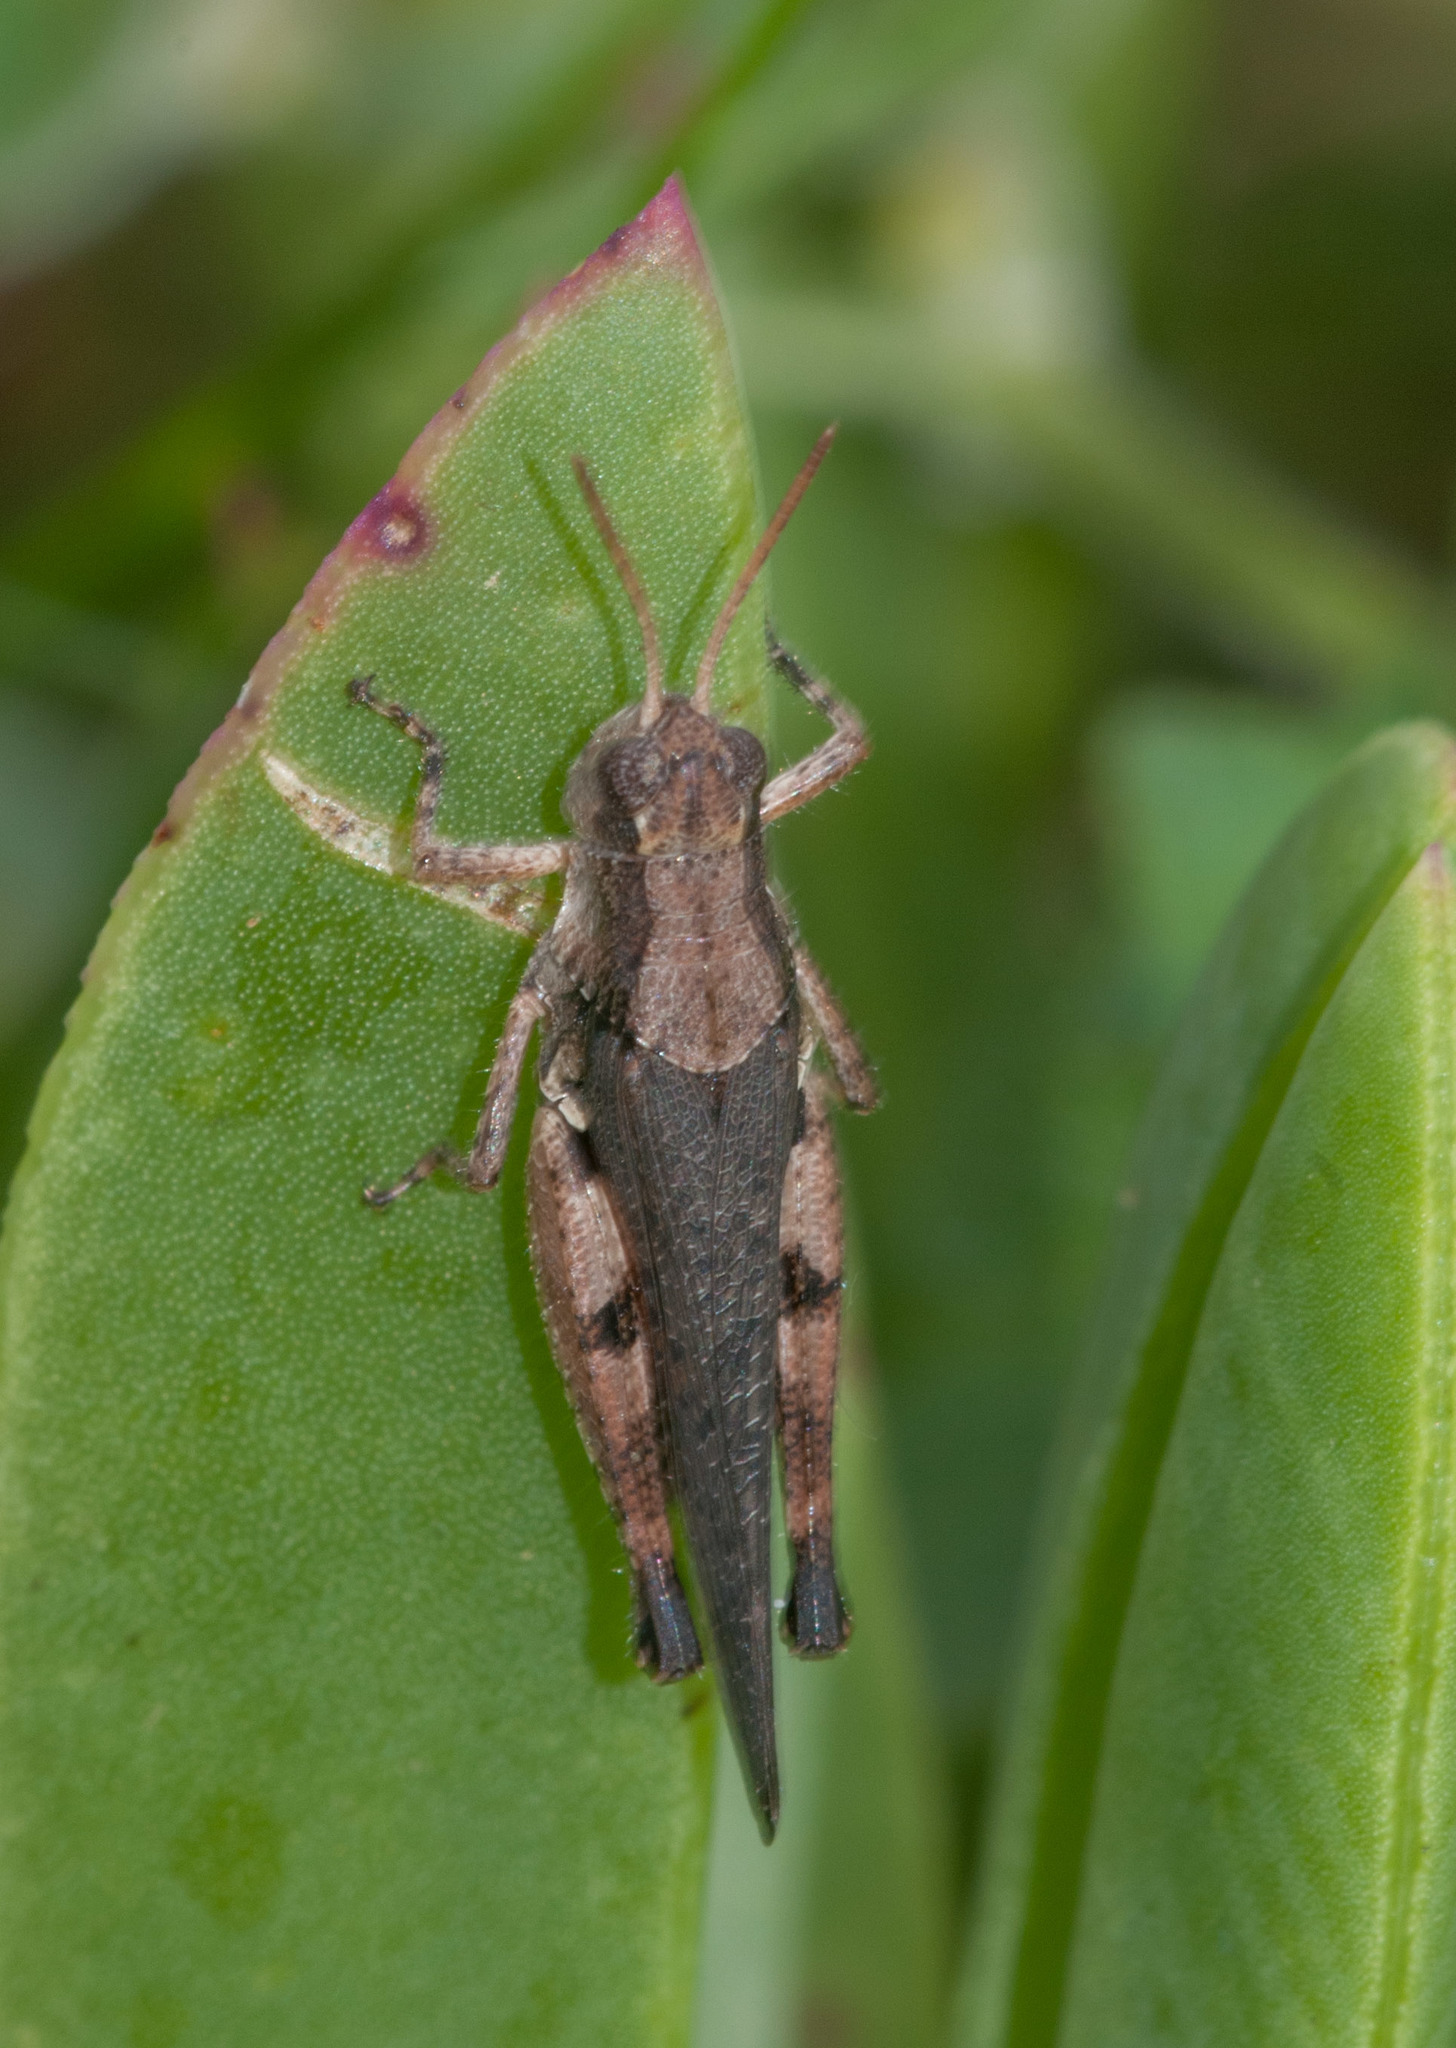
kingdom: Animalia
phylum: Arthropoda
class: Insecta
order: Orthoptera
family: Acrididae
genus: Phaulacridium
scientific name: Phaulacridium vittatum
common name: Wingless grasshopper
